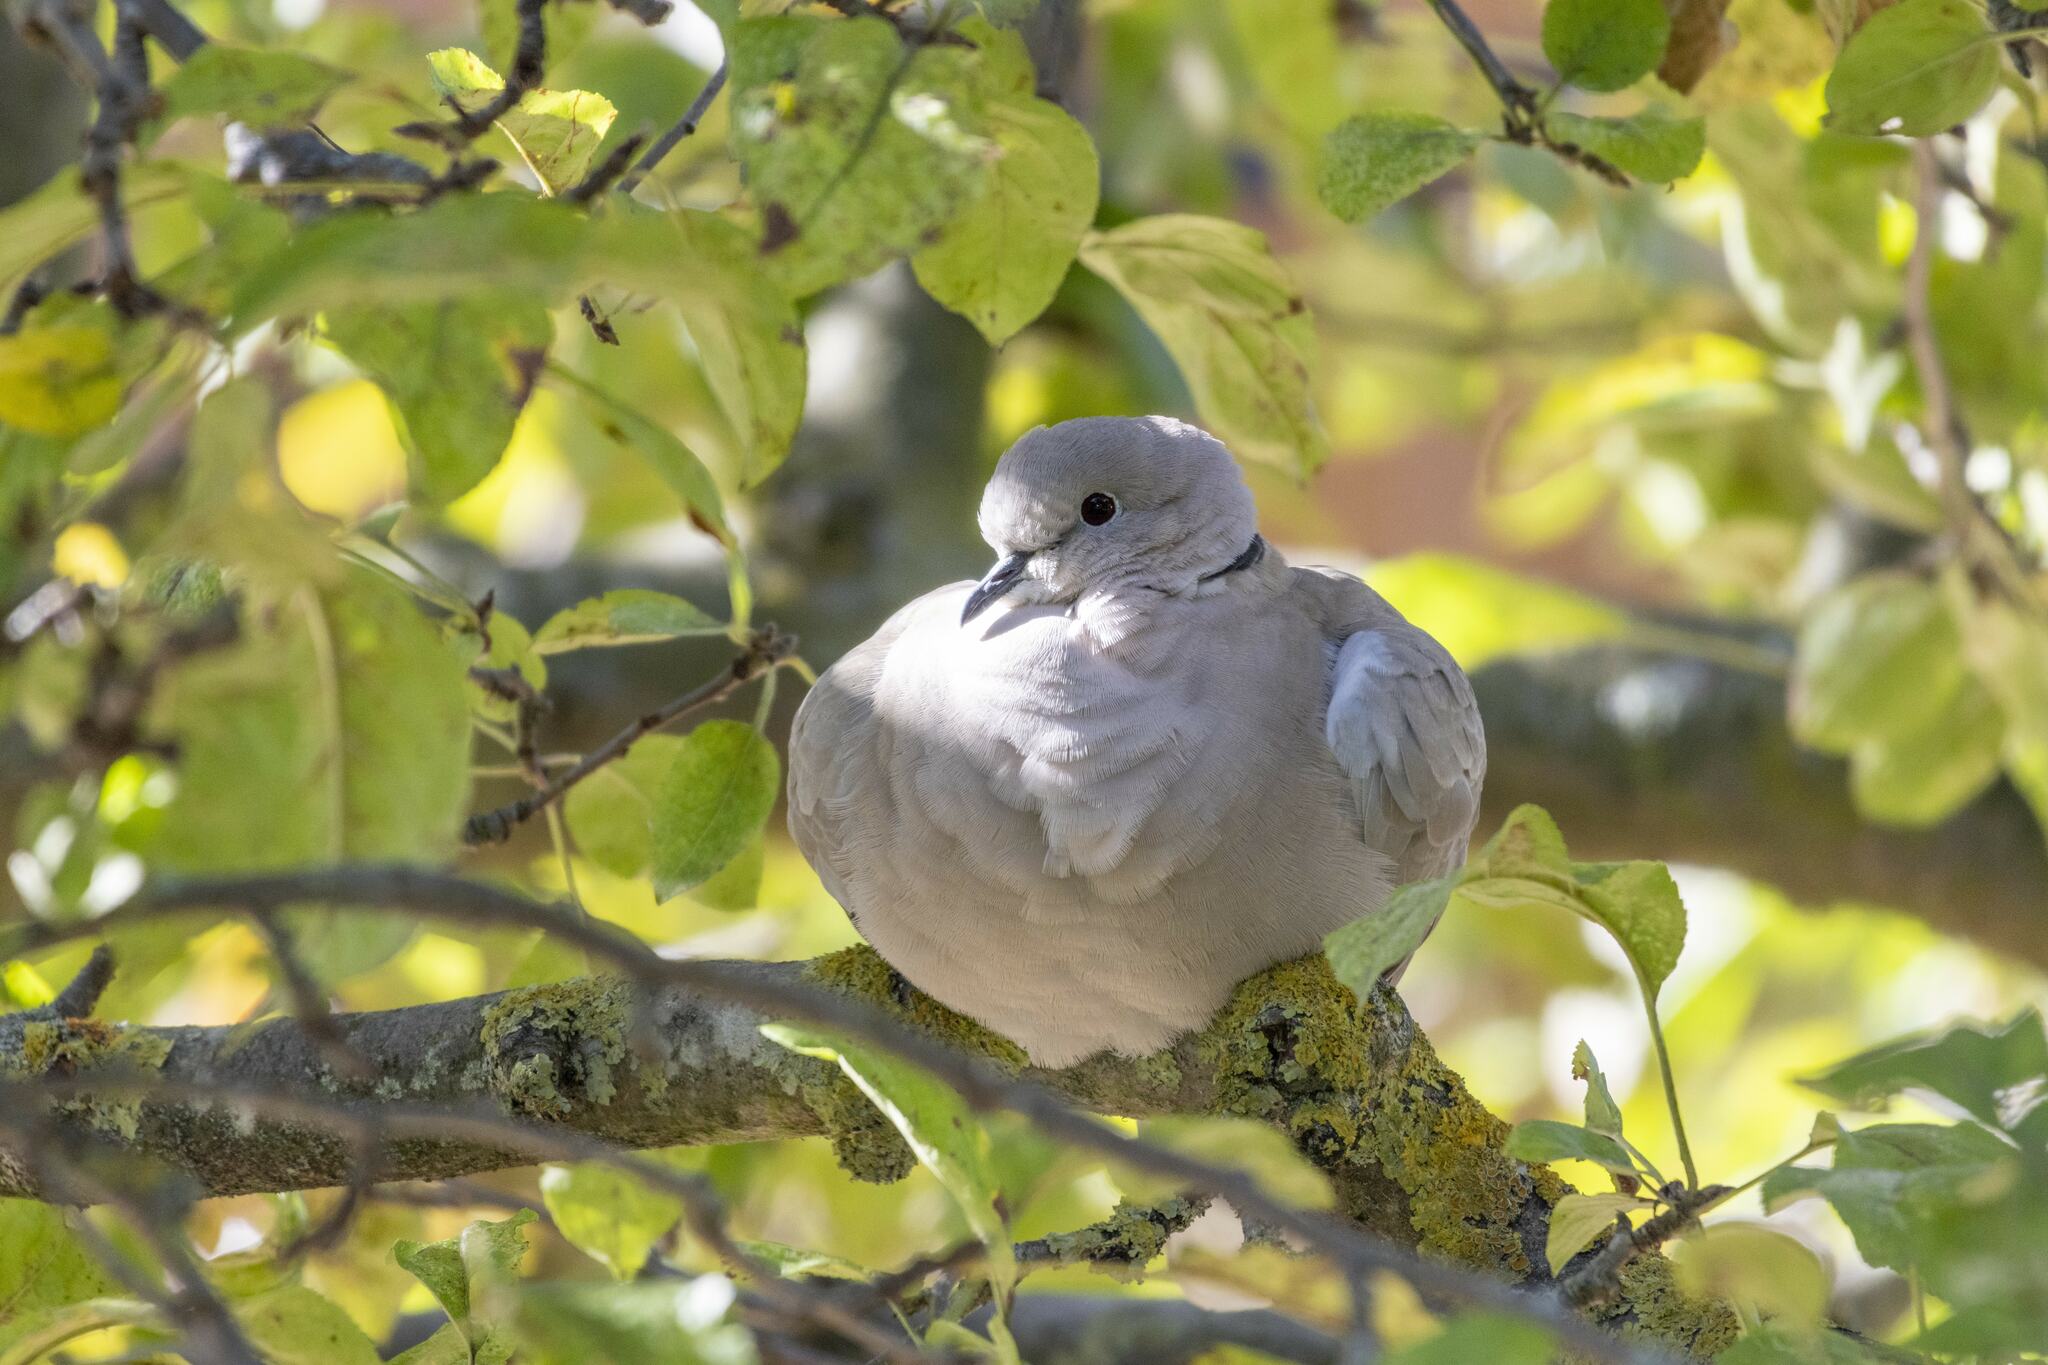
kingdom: Animalia
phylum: Chordata
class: Aves
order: Columbiformes
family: Columbidae
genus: Streptopelia
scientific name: Streptopelia decaocto
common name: Eurasian collared dove
